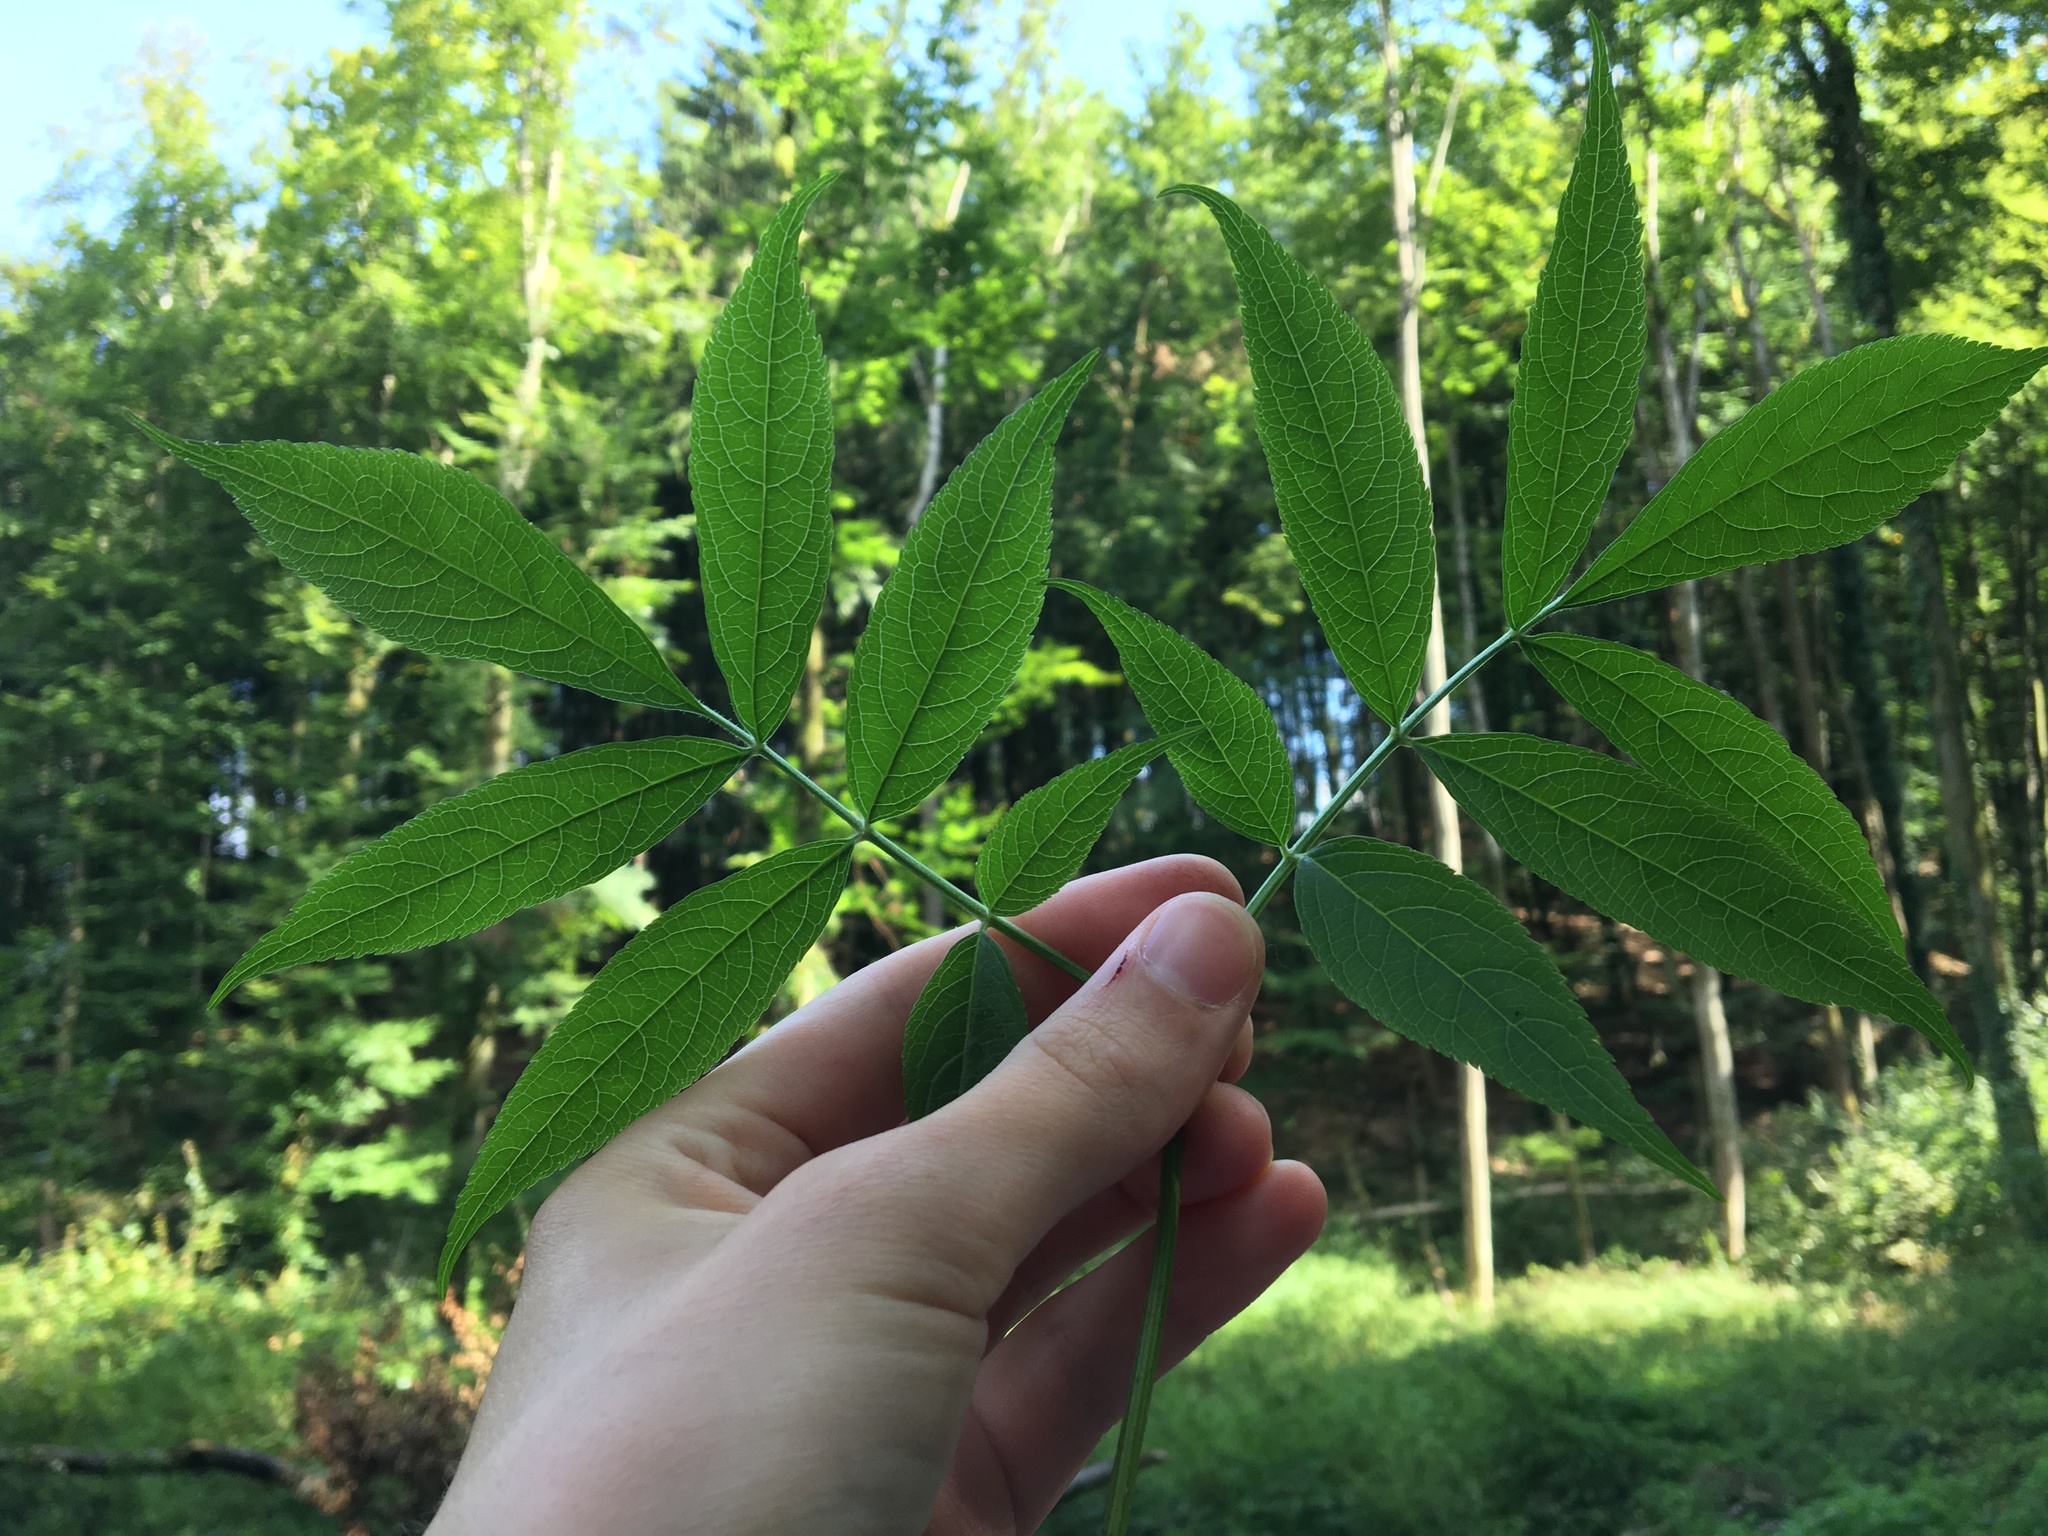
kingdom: Plantae
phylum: Tracheophyta
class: Magnoliopsida
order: Dipsacales
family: Viburnaceae
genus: Sambucus
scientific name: Sambucus nigra
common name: Elder
